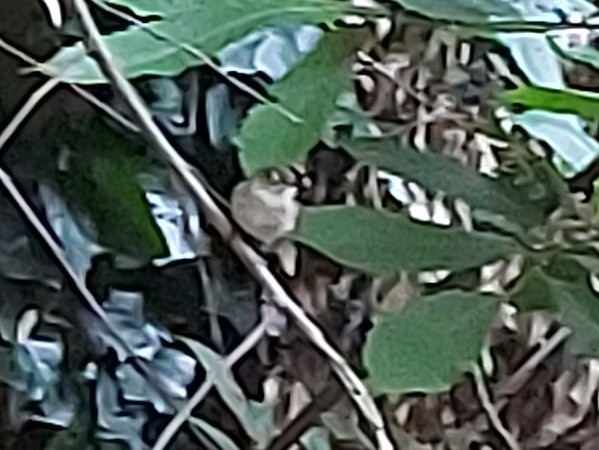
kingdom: Animalia
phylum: Chordata
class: Aves
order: Passeriformes
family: Muscicapidae
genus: Muscicapa
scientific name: Muscicapa adusta
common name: African dusky flycatcher
